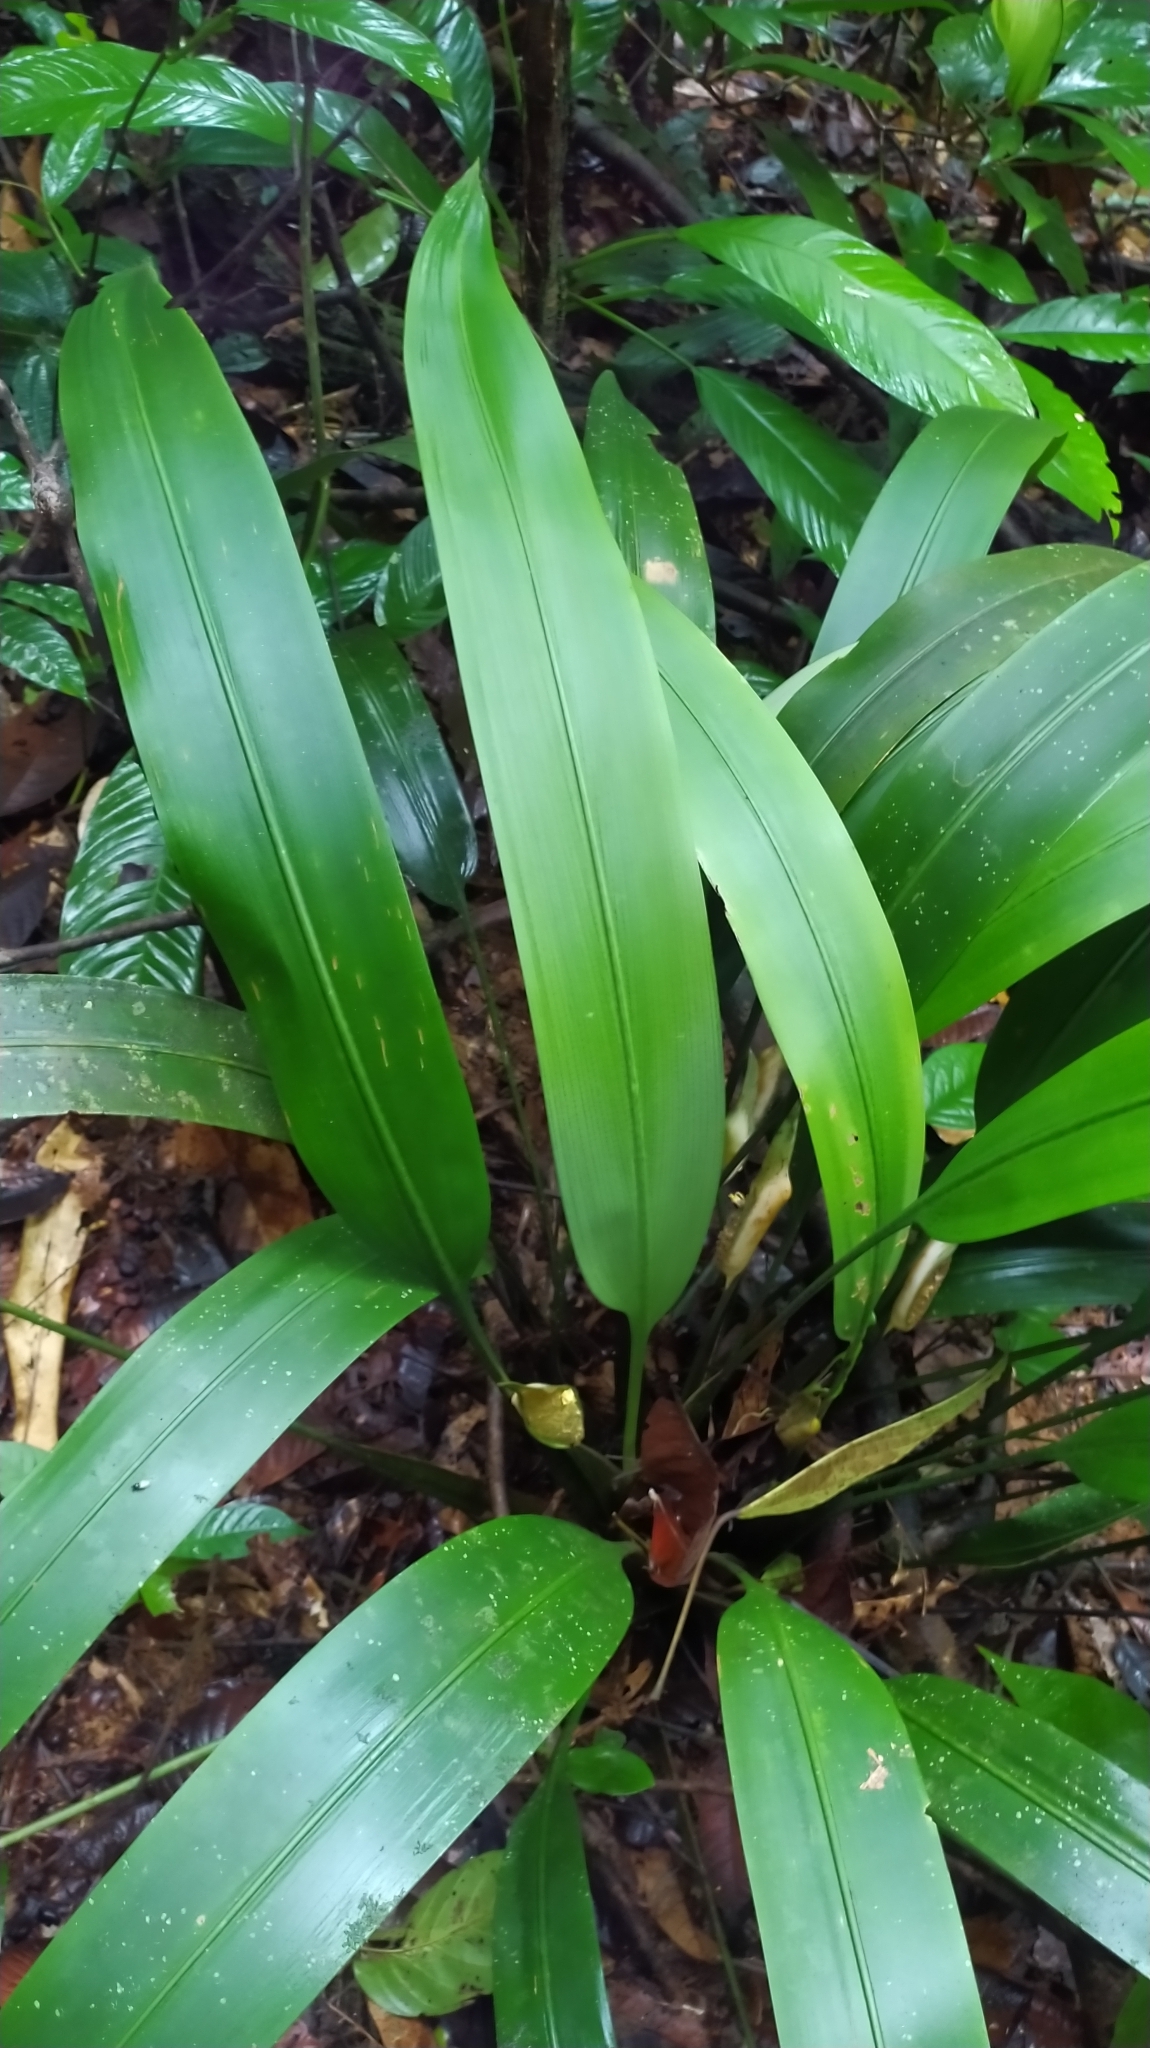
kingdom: Plantae
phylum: Tracheophyta
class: Liliopsida
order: Poales
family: Rapateaceae
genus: Spathanthus
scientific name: Spathanthus unilateralis
